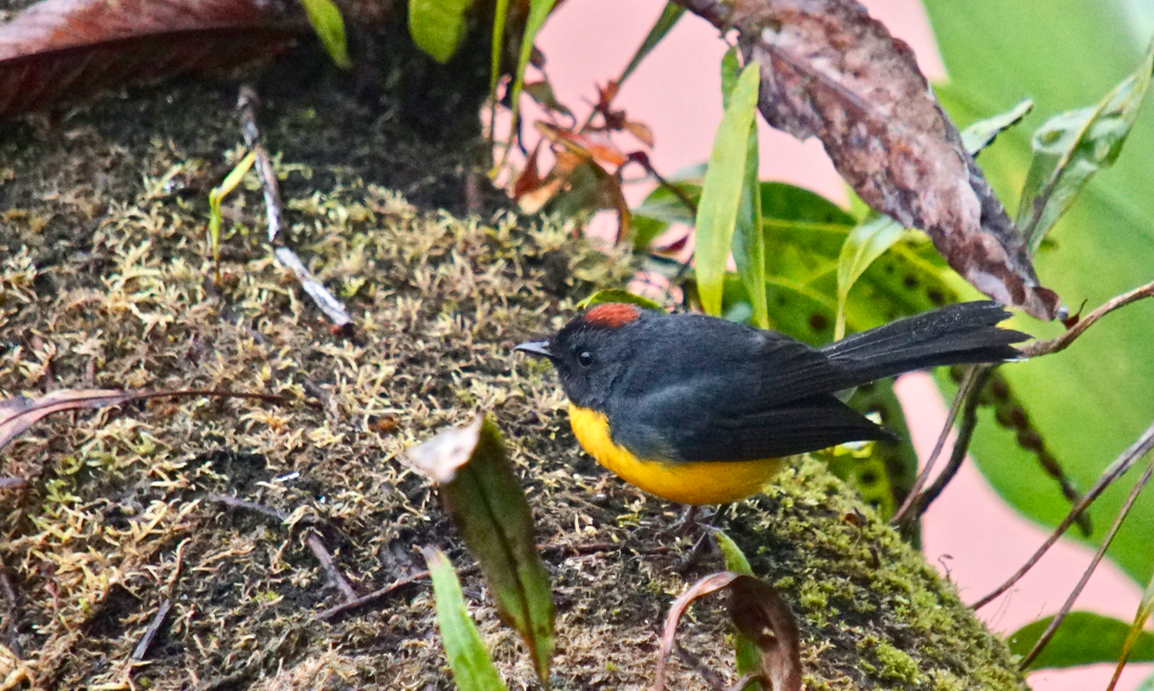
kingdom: Animalia
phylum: Chordata
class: Aves
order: Passeriformes
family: Parulidae
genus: Myioborus
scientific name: Myioborus miniatus
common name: Slate-throated redstart
